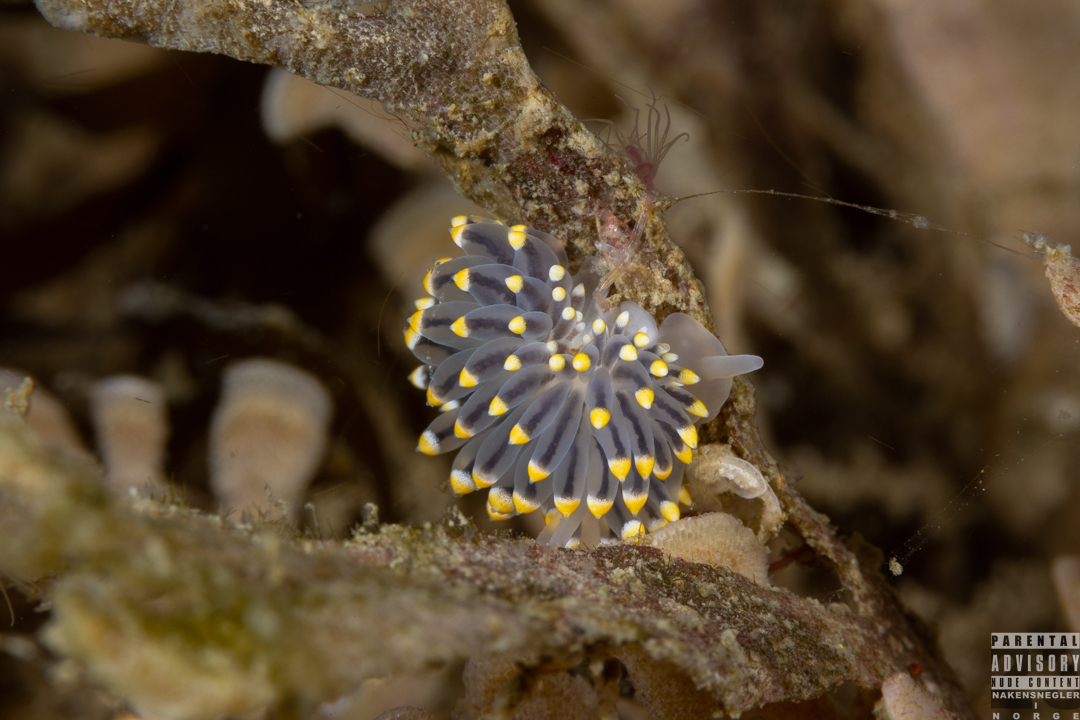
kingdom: Animalia
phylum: Mollusca
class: Gastropoda
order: Nudibranchia
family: Eubranchidae
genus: Eubranchus
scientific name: Eubranchus tricolor
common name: Painted balloon aeolis
